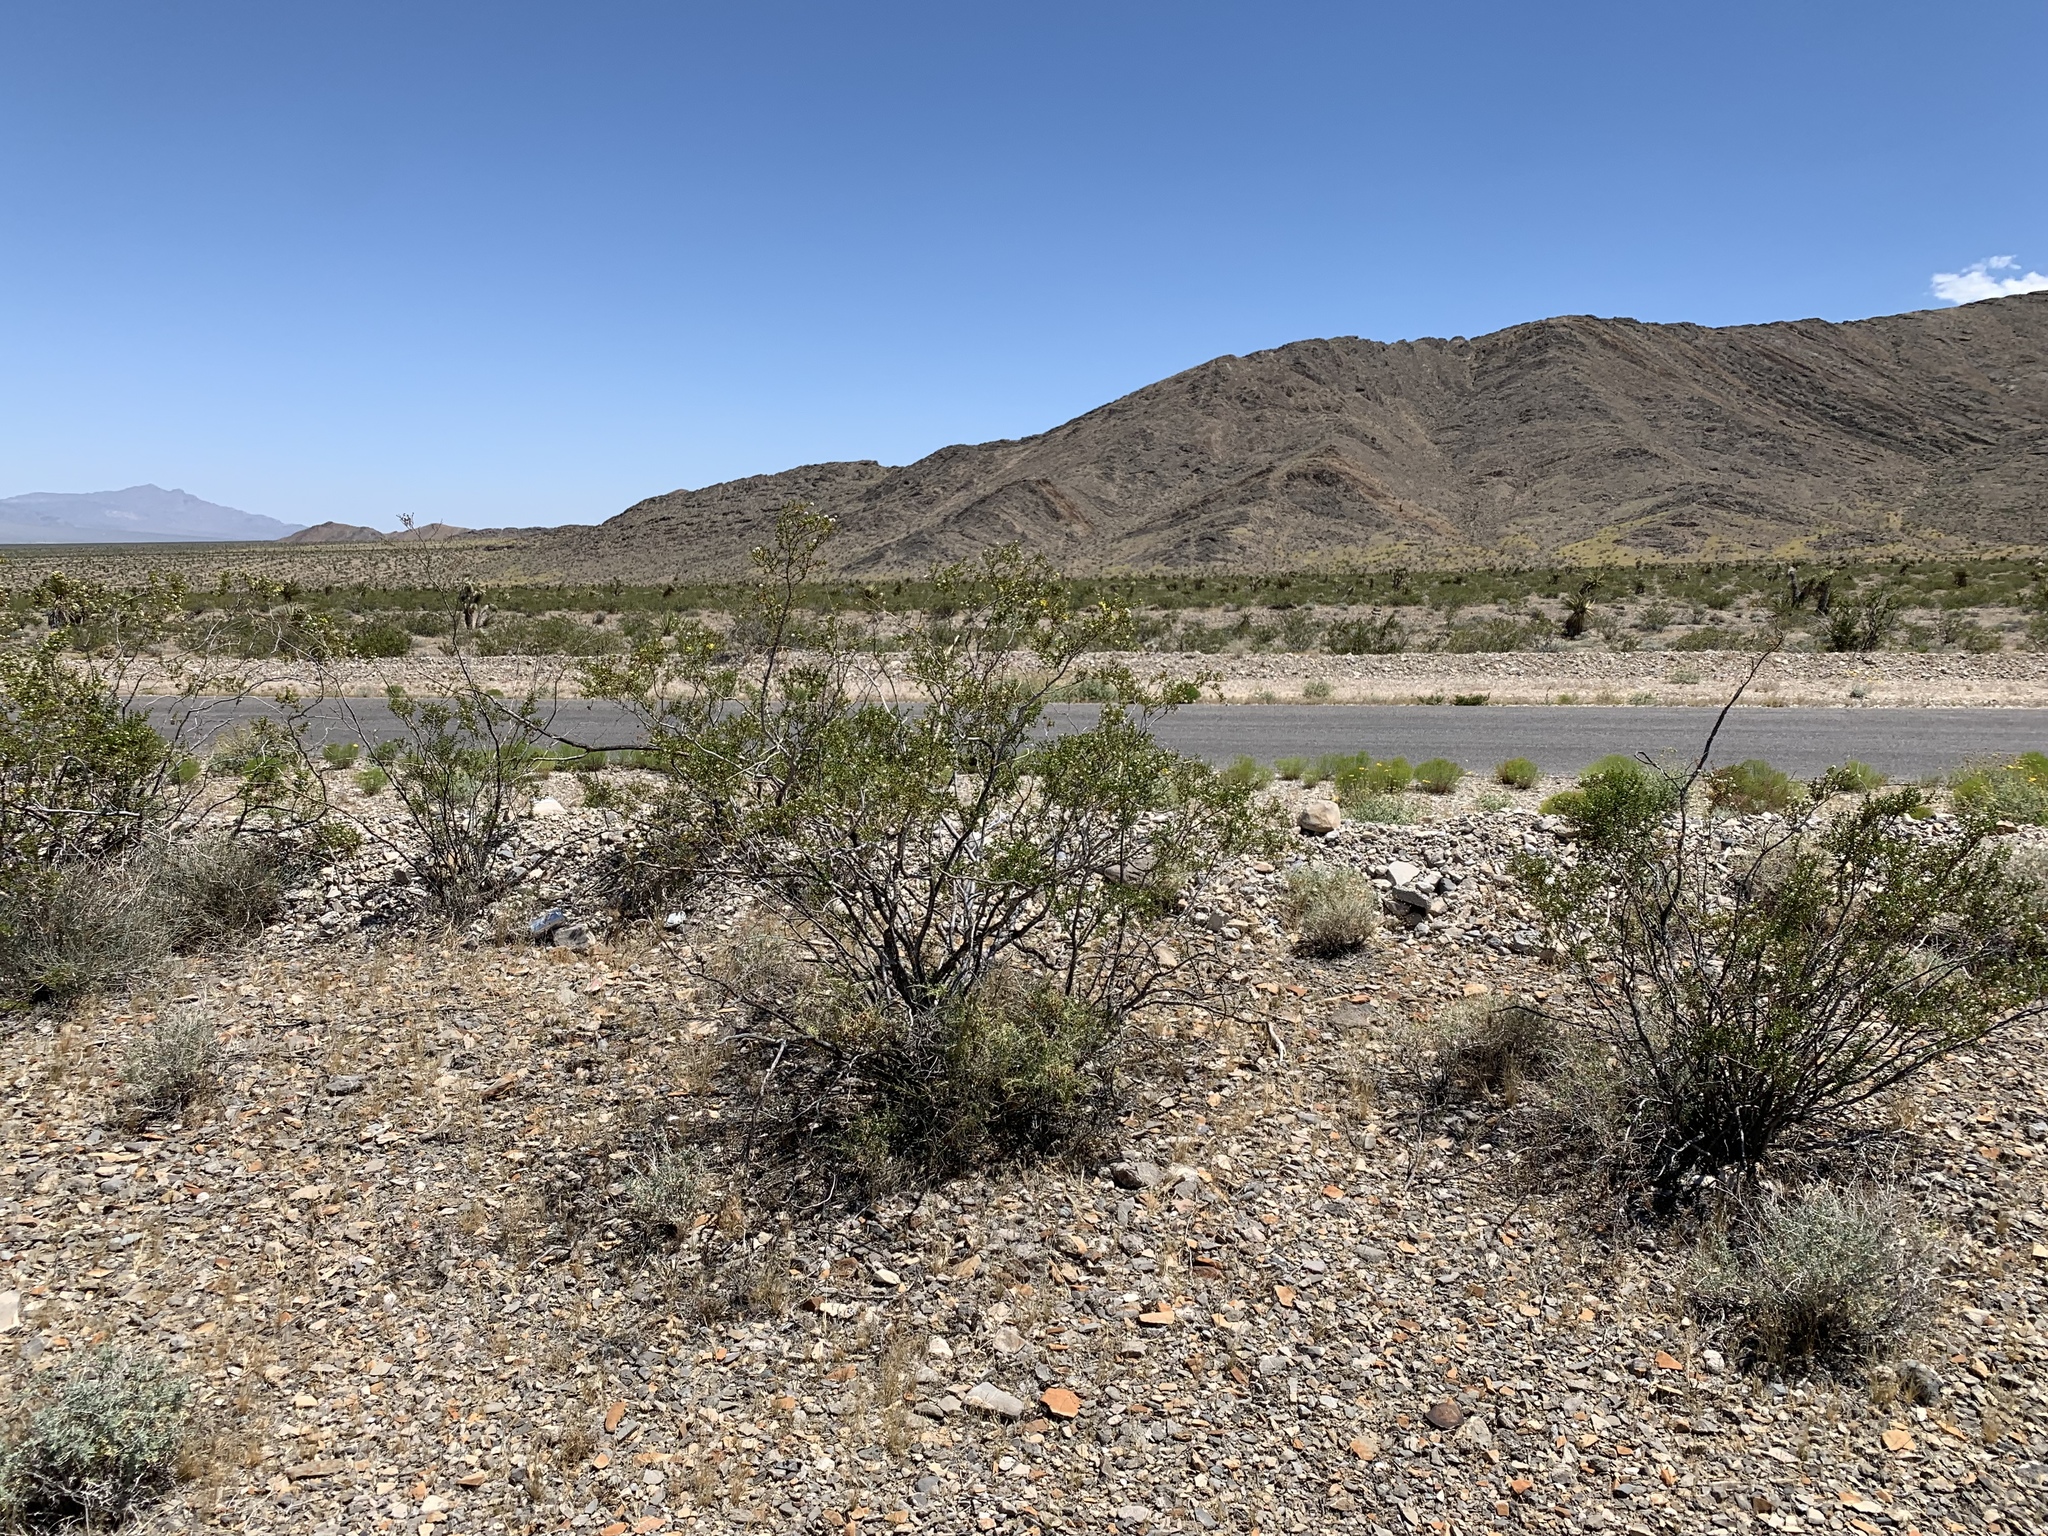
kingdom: Plantae
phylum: Tracheophyta
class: Magnoliopsida
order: Zygophyllales
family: Zygophyllaceae
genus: Larrea
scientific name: Larrea tridentata
